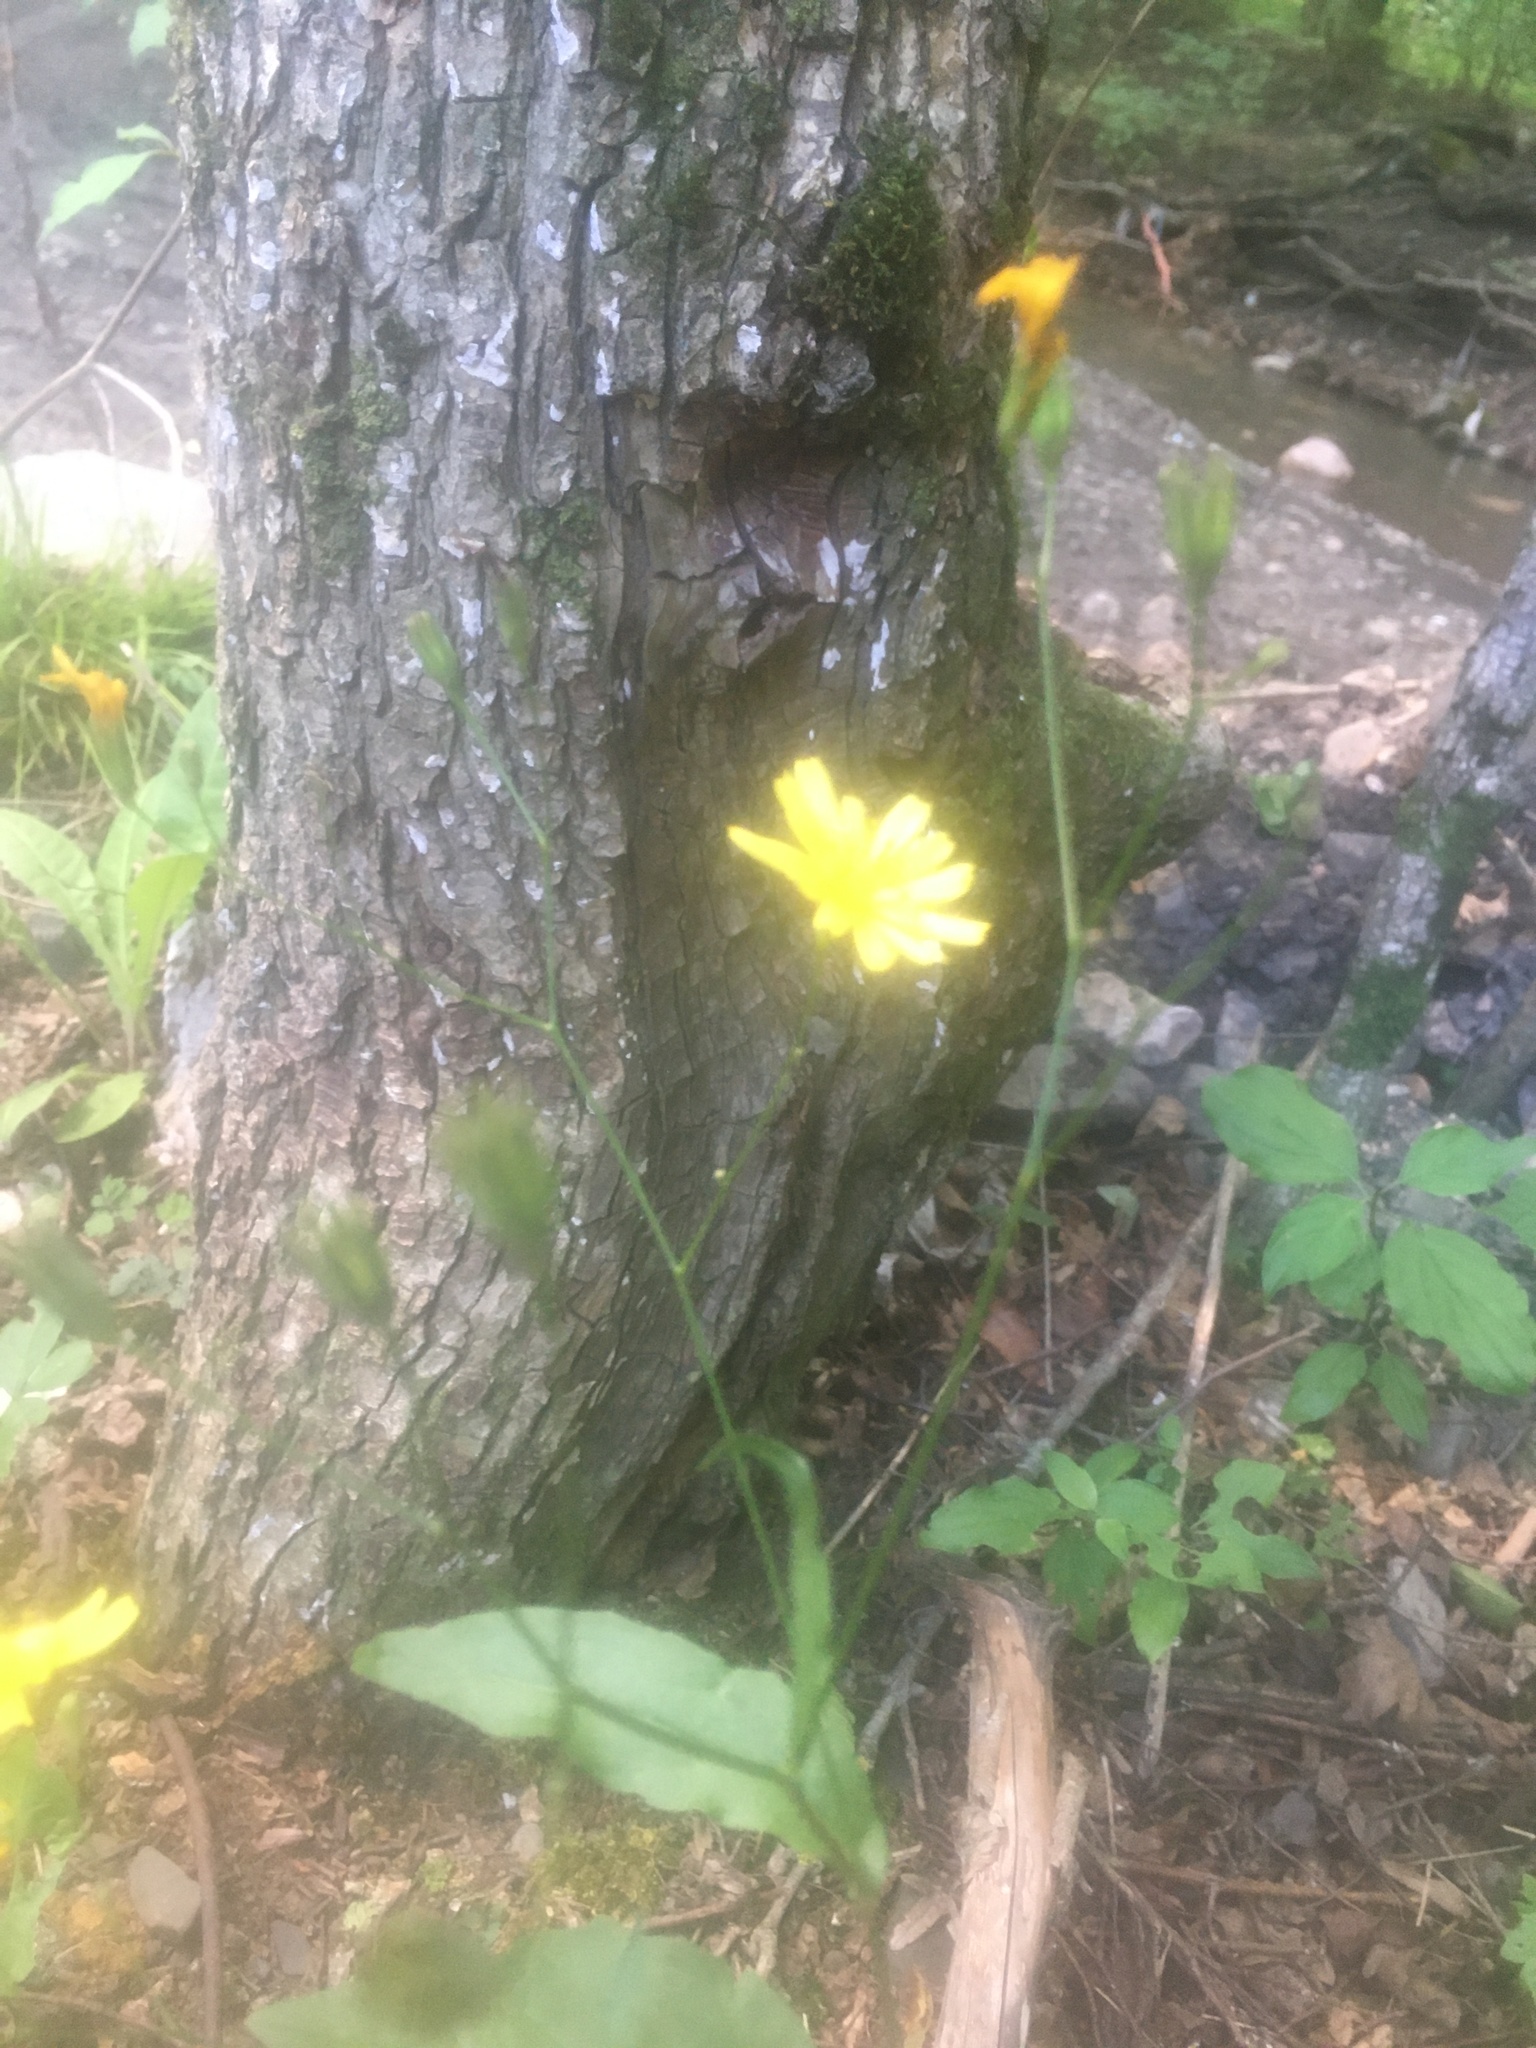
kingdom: Plantae
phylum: Tracheophyta
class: Magnoliopsida
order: Asterales
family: Asteraceae
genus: Lapsana
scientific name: Lapsana communis
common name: Nipplewort
